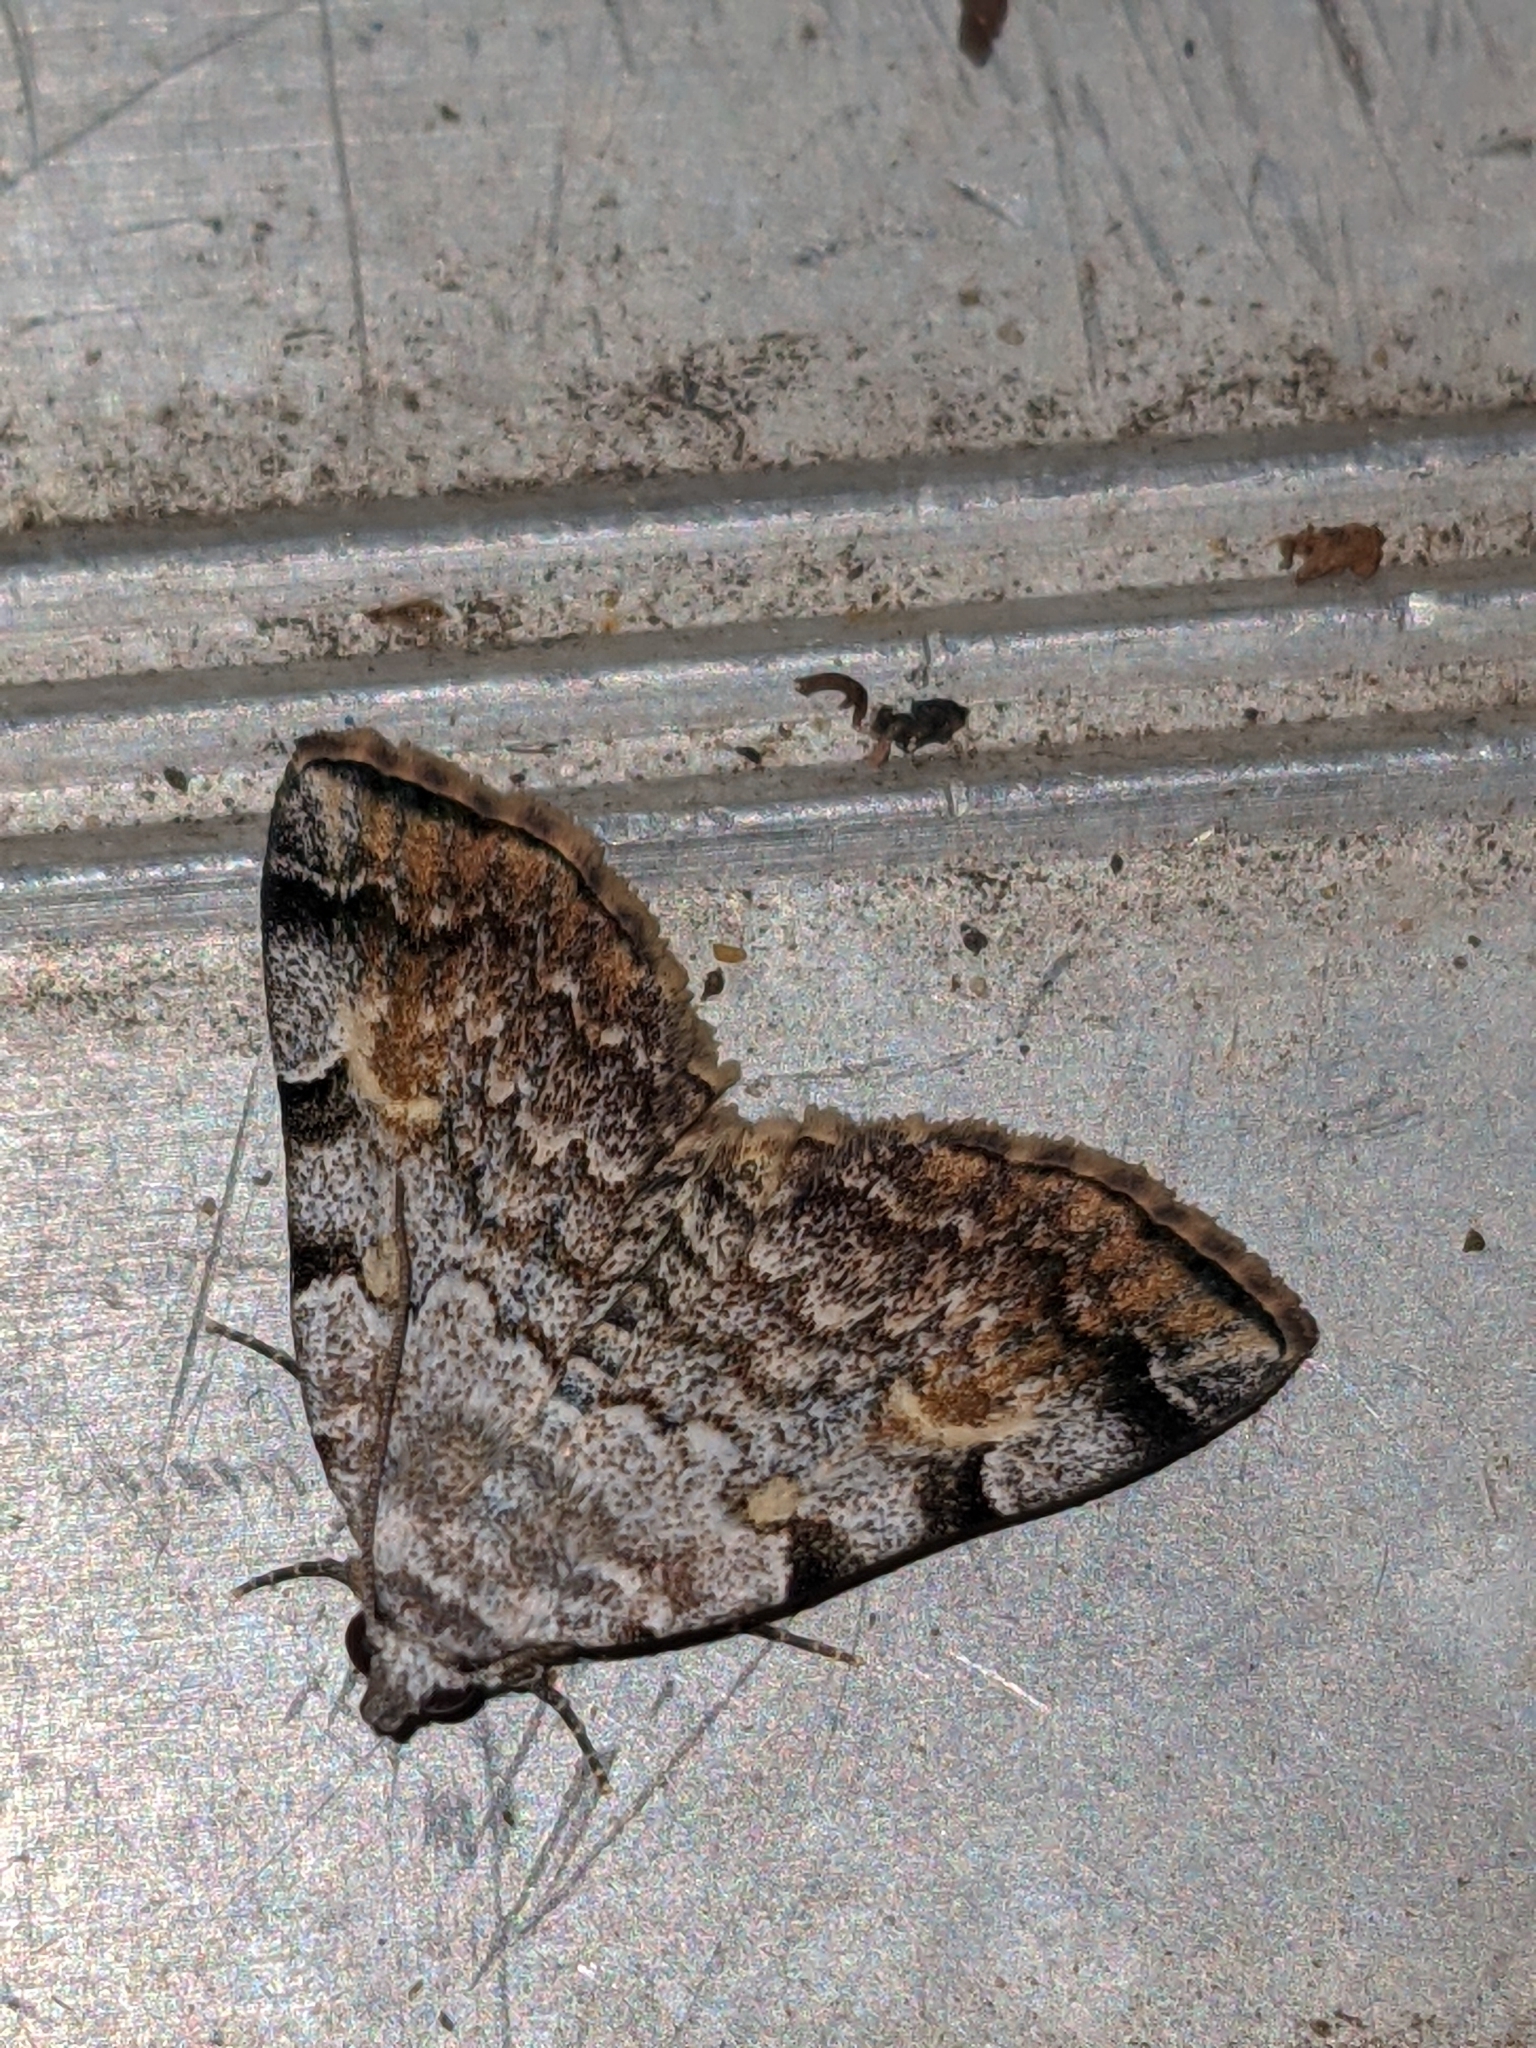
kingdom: Animalia
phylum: Arthropoda
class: Insecta
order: Lepidoptera
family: Erebidae
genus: Idia
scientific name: Idia americalis
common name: American idia moth
